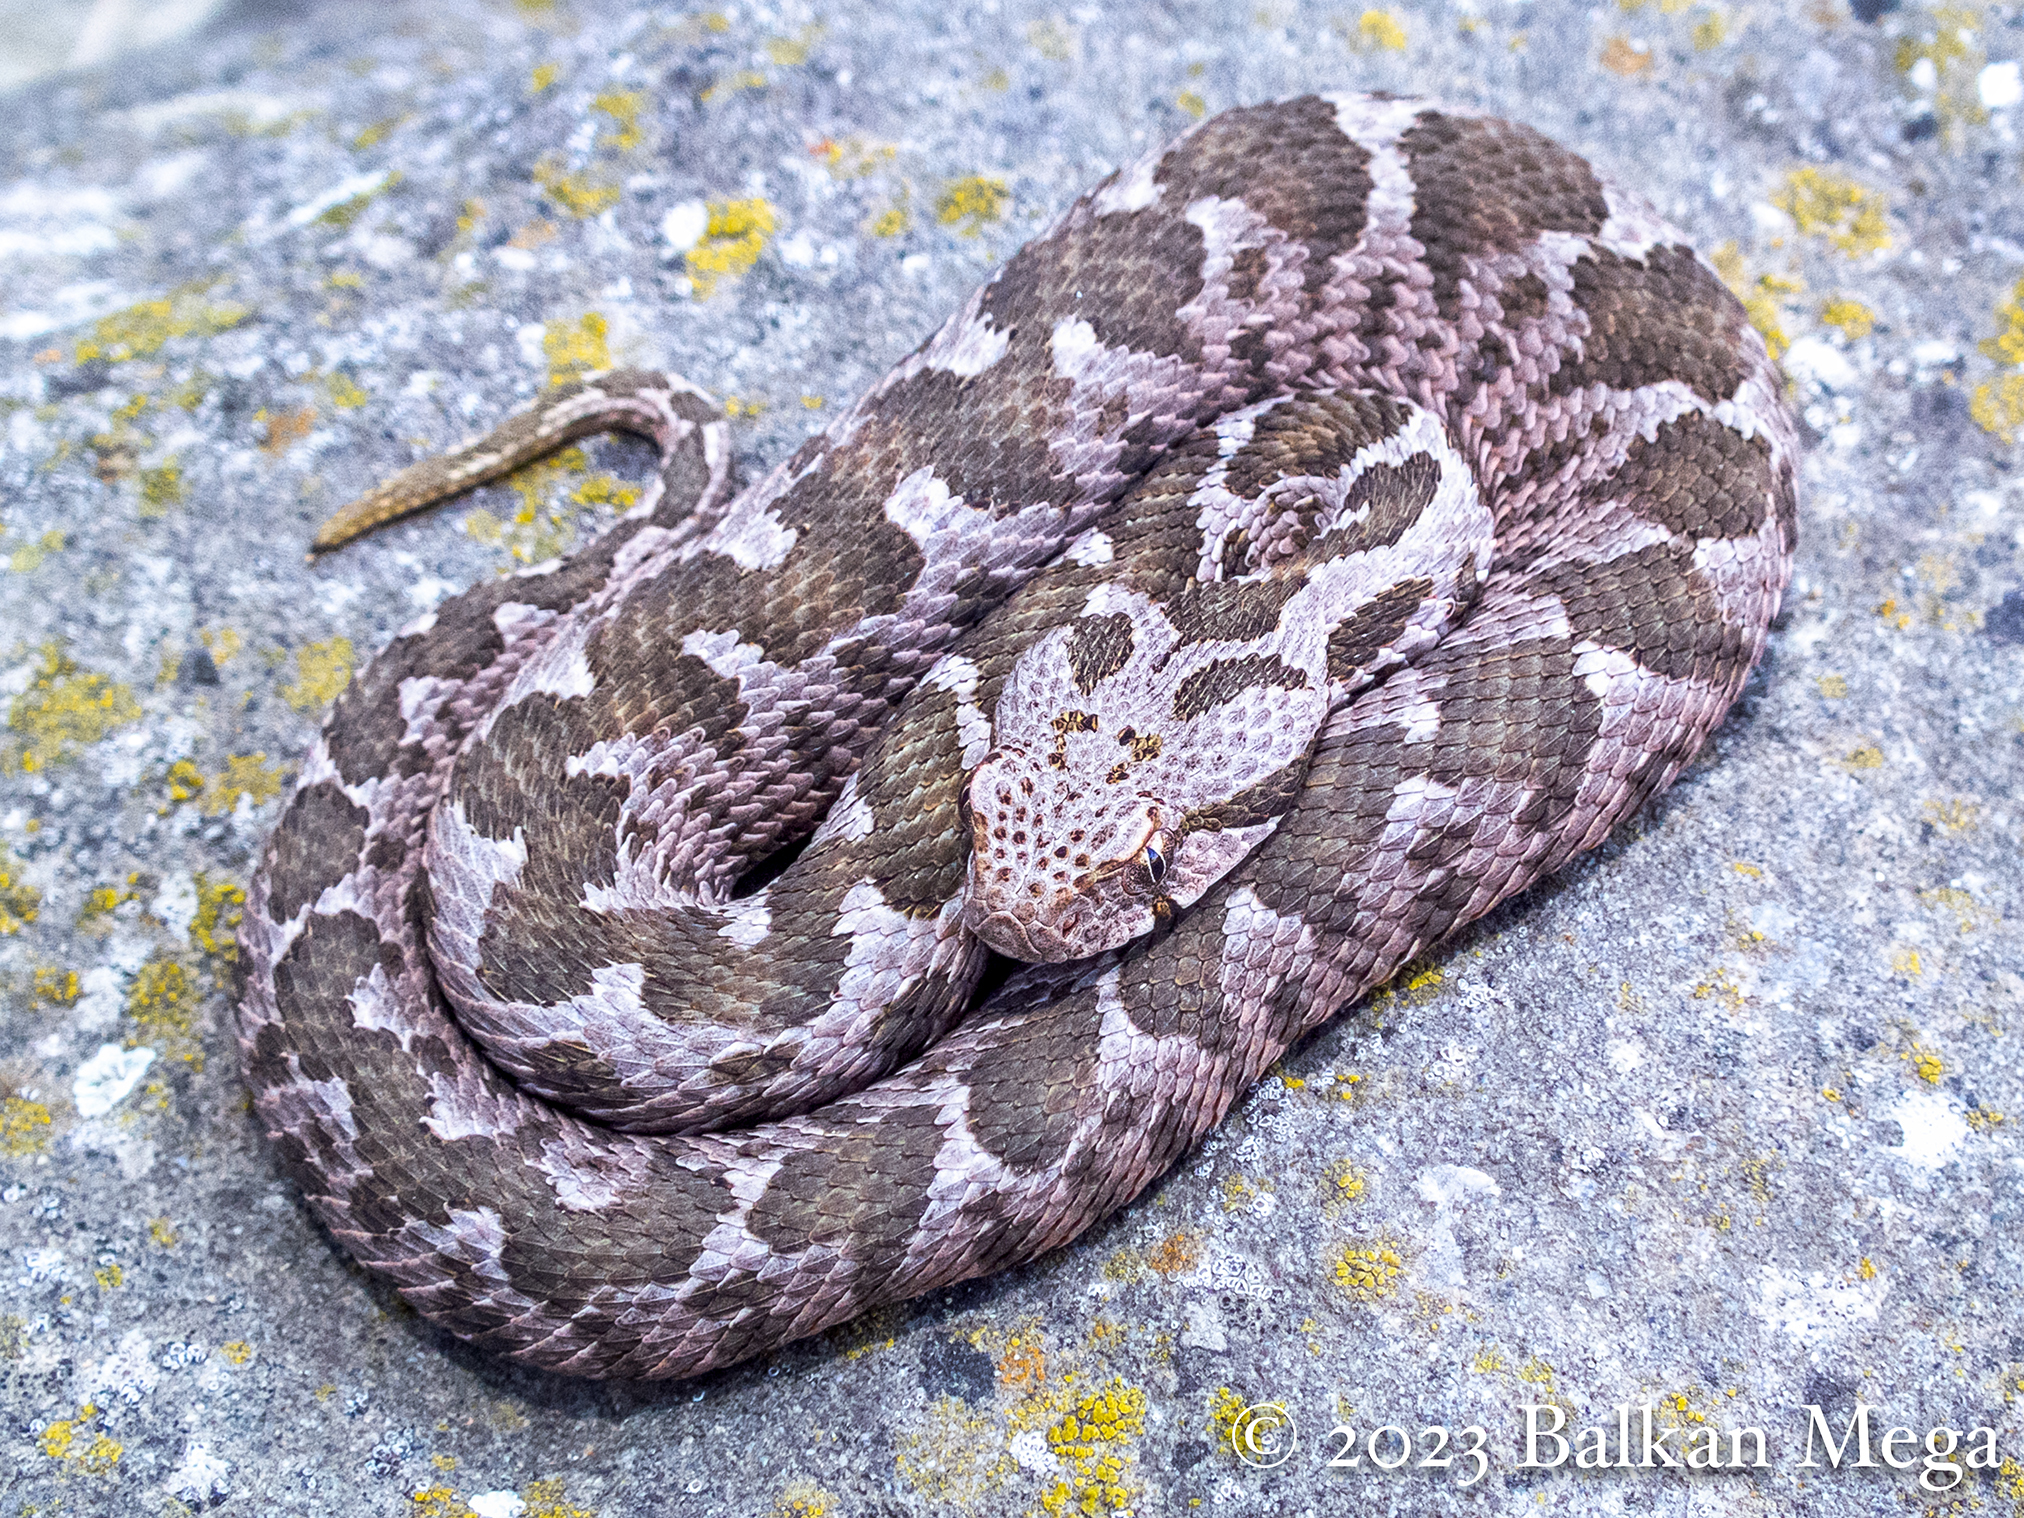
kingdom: Animalia
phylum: Chordata
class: Squamata
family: Viperidae
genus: Montivipera
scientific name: Montivipera xanthina
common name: Ottoman viper
